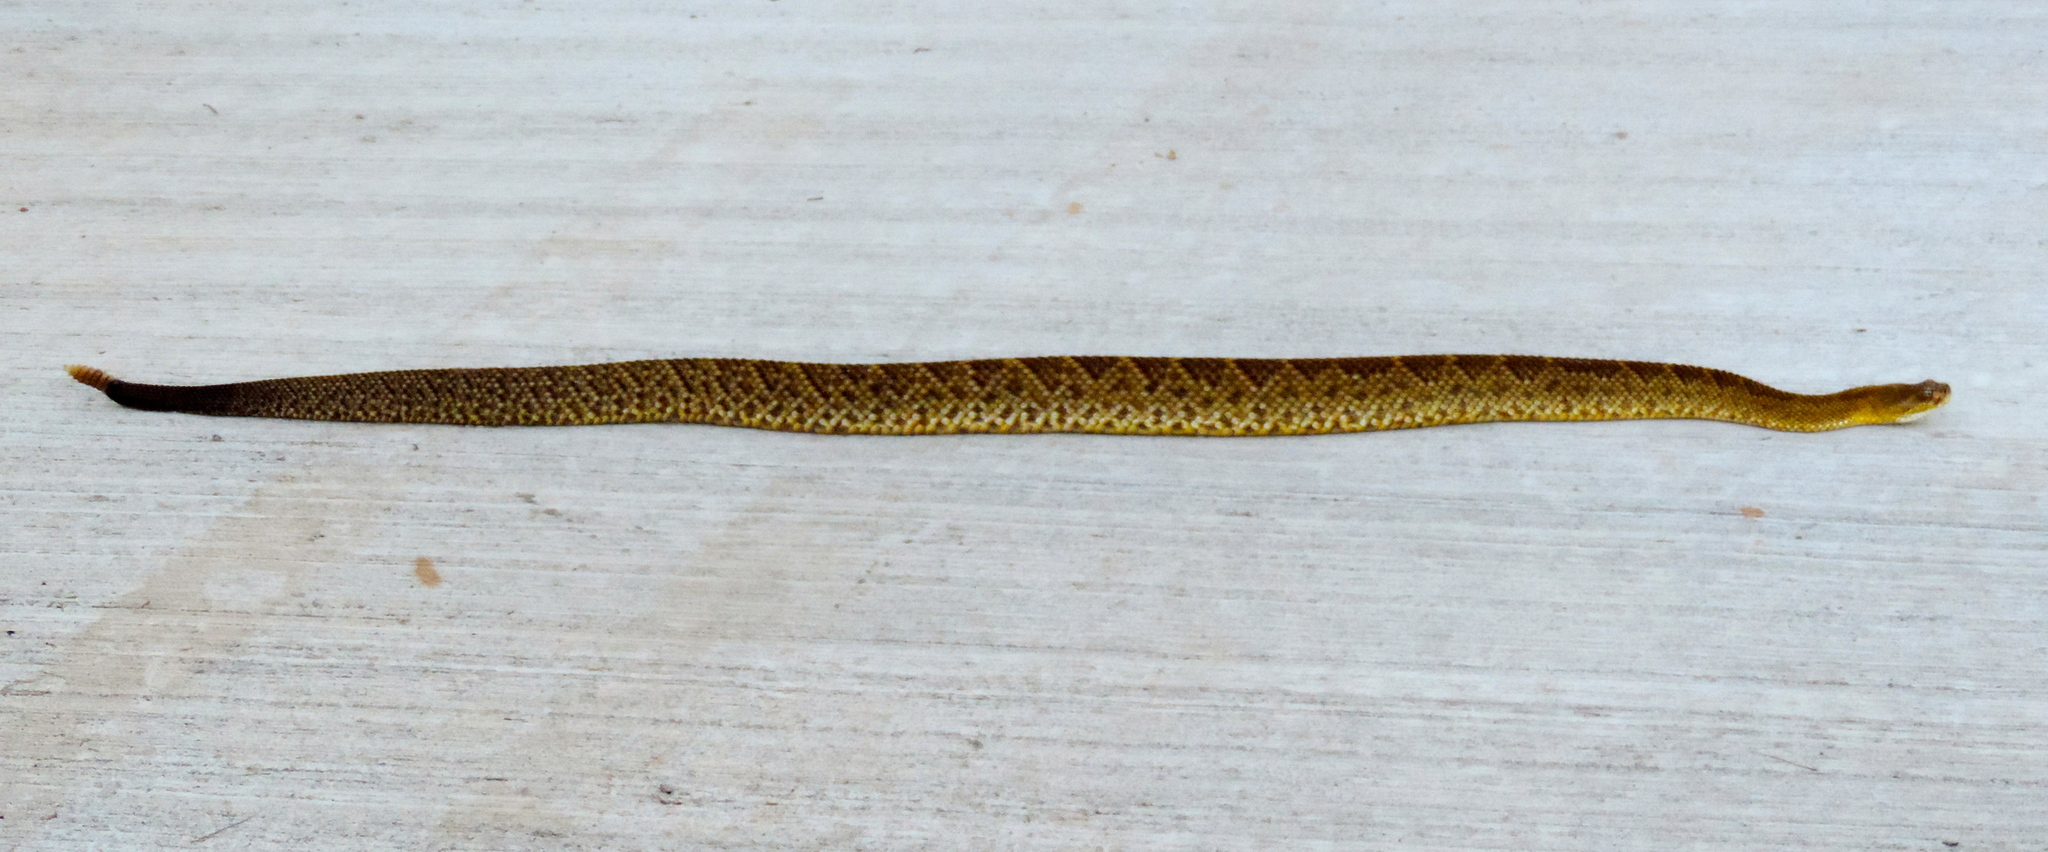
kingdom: Animalia
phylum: Chordata
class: Squamata
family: Viperidae
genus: Crotalus
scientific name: Crotalus basiliscus
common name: Basilisk rattlesnake
